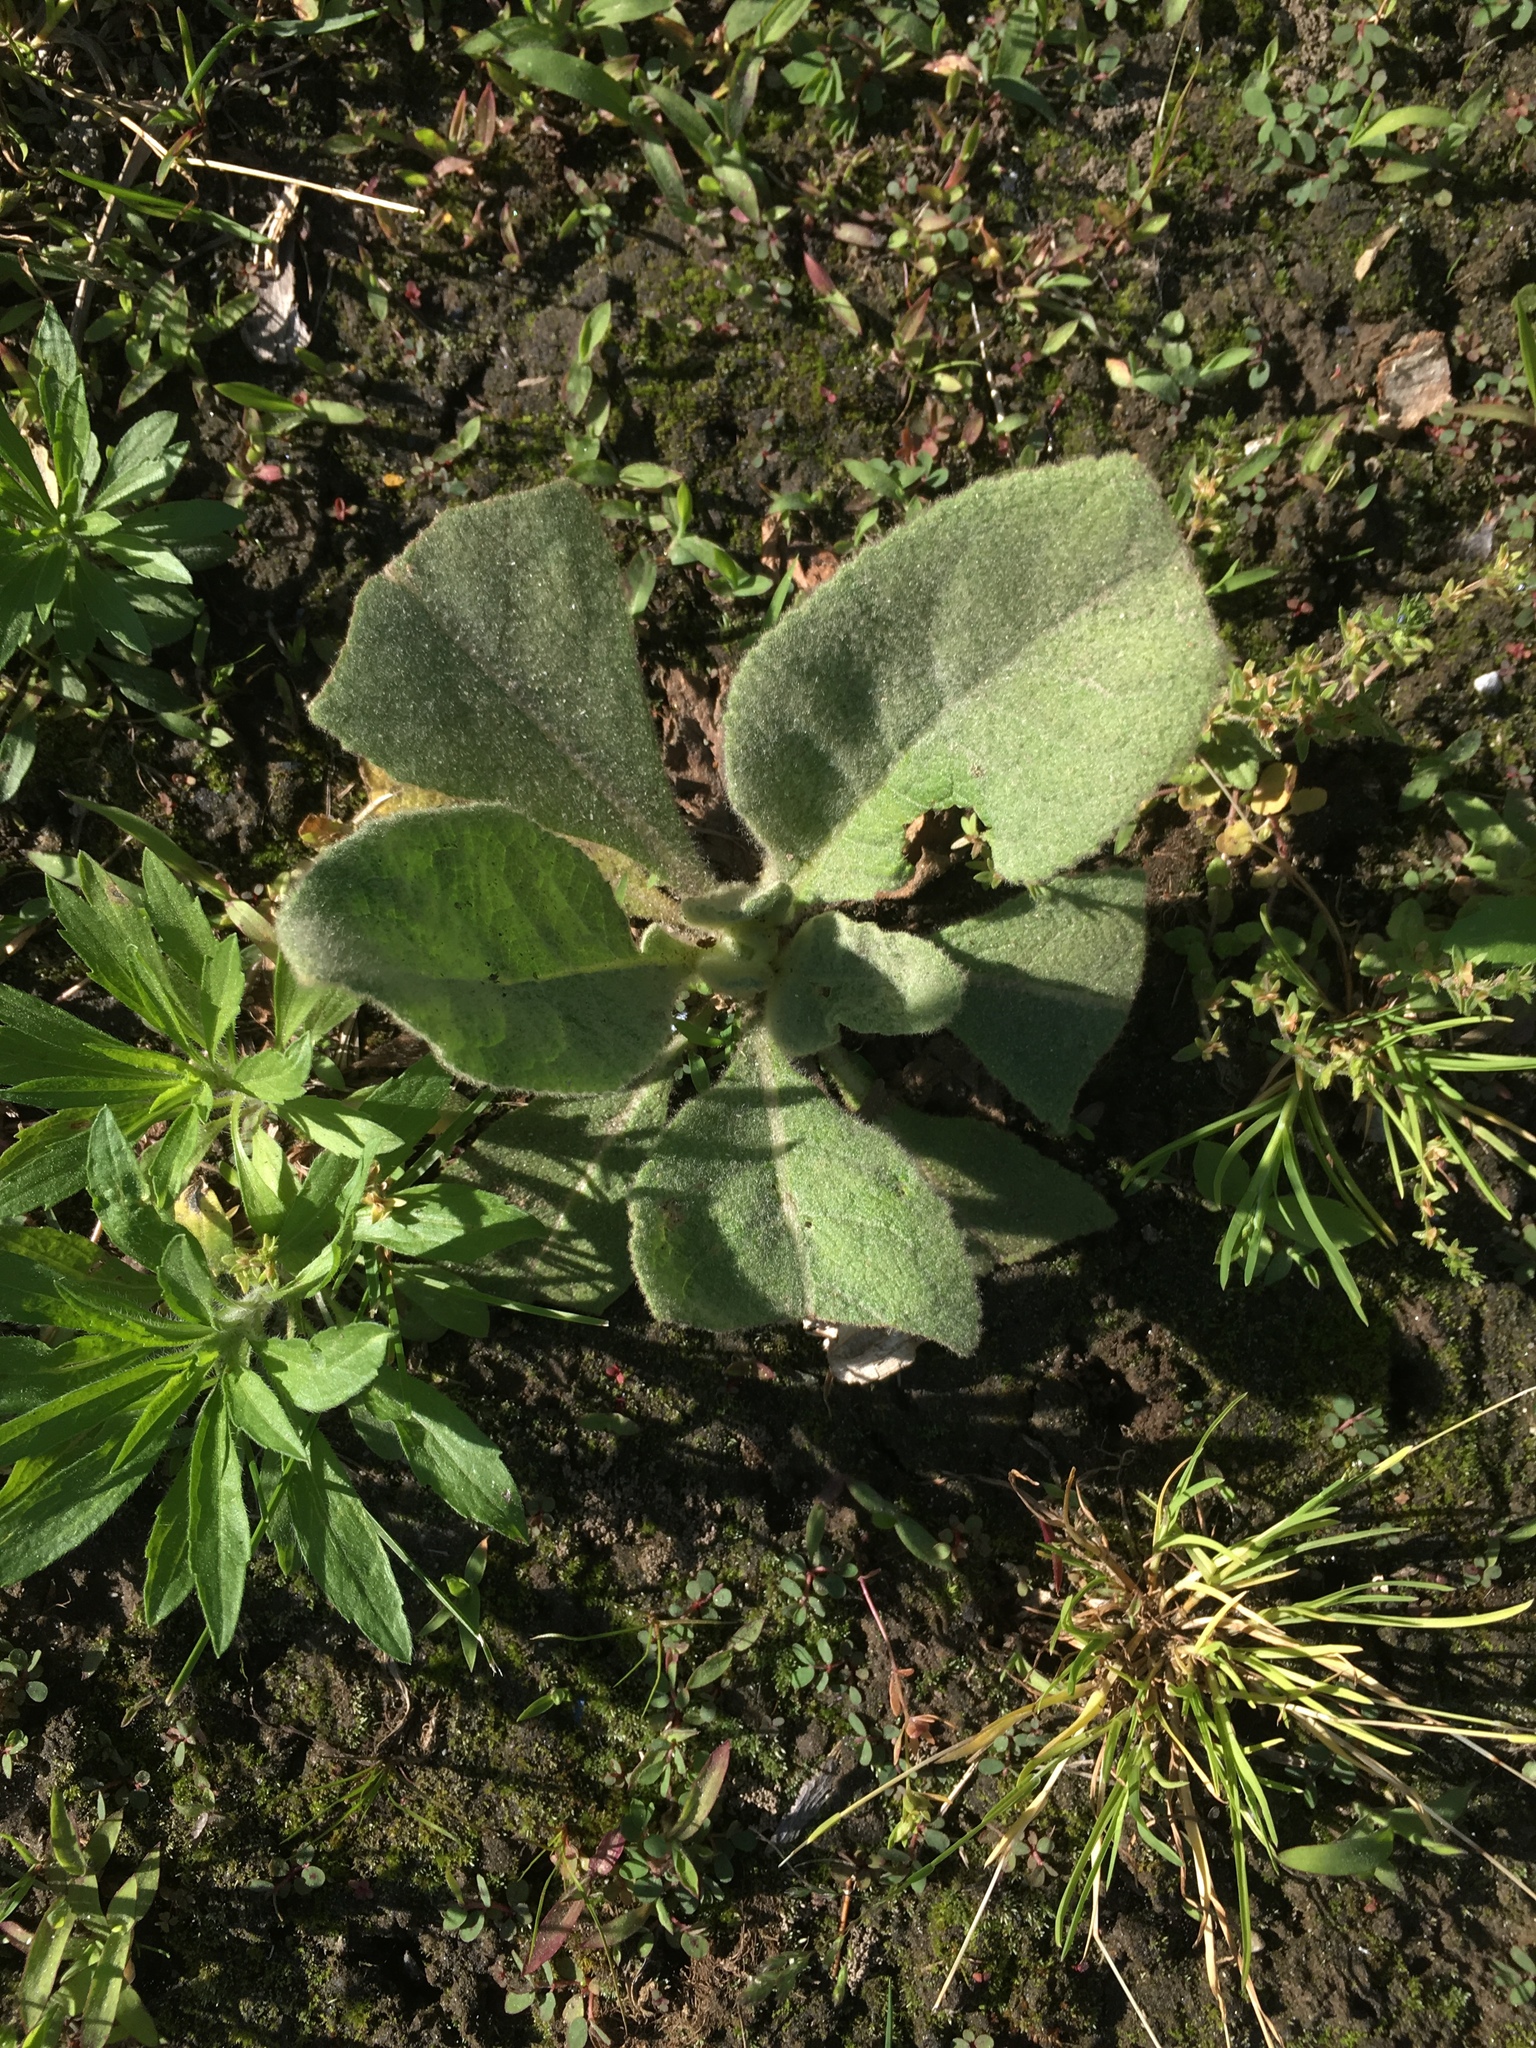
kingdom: Plantae
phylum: Tracheophyta
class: Magnoliopsida
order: Lamiales
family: Scrophulariaceae
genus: Verbascum
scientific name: Verbascum thapsus
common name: Common mullein
